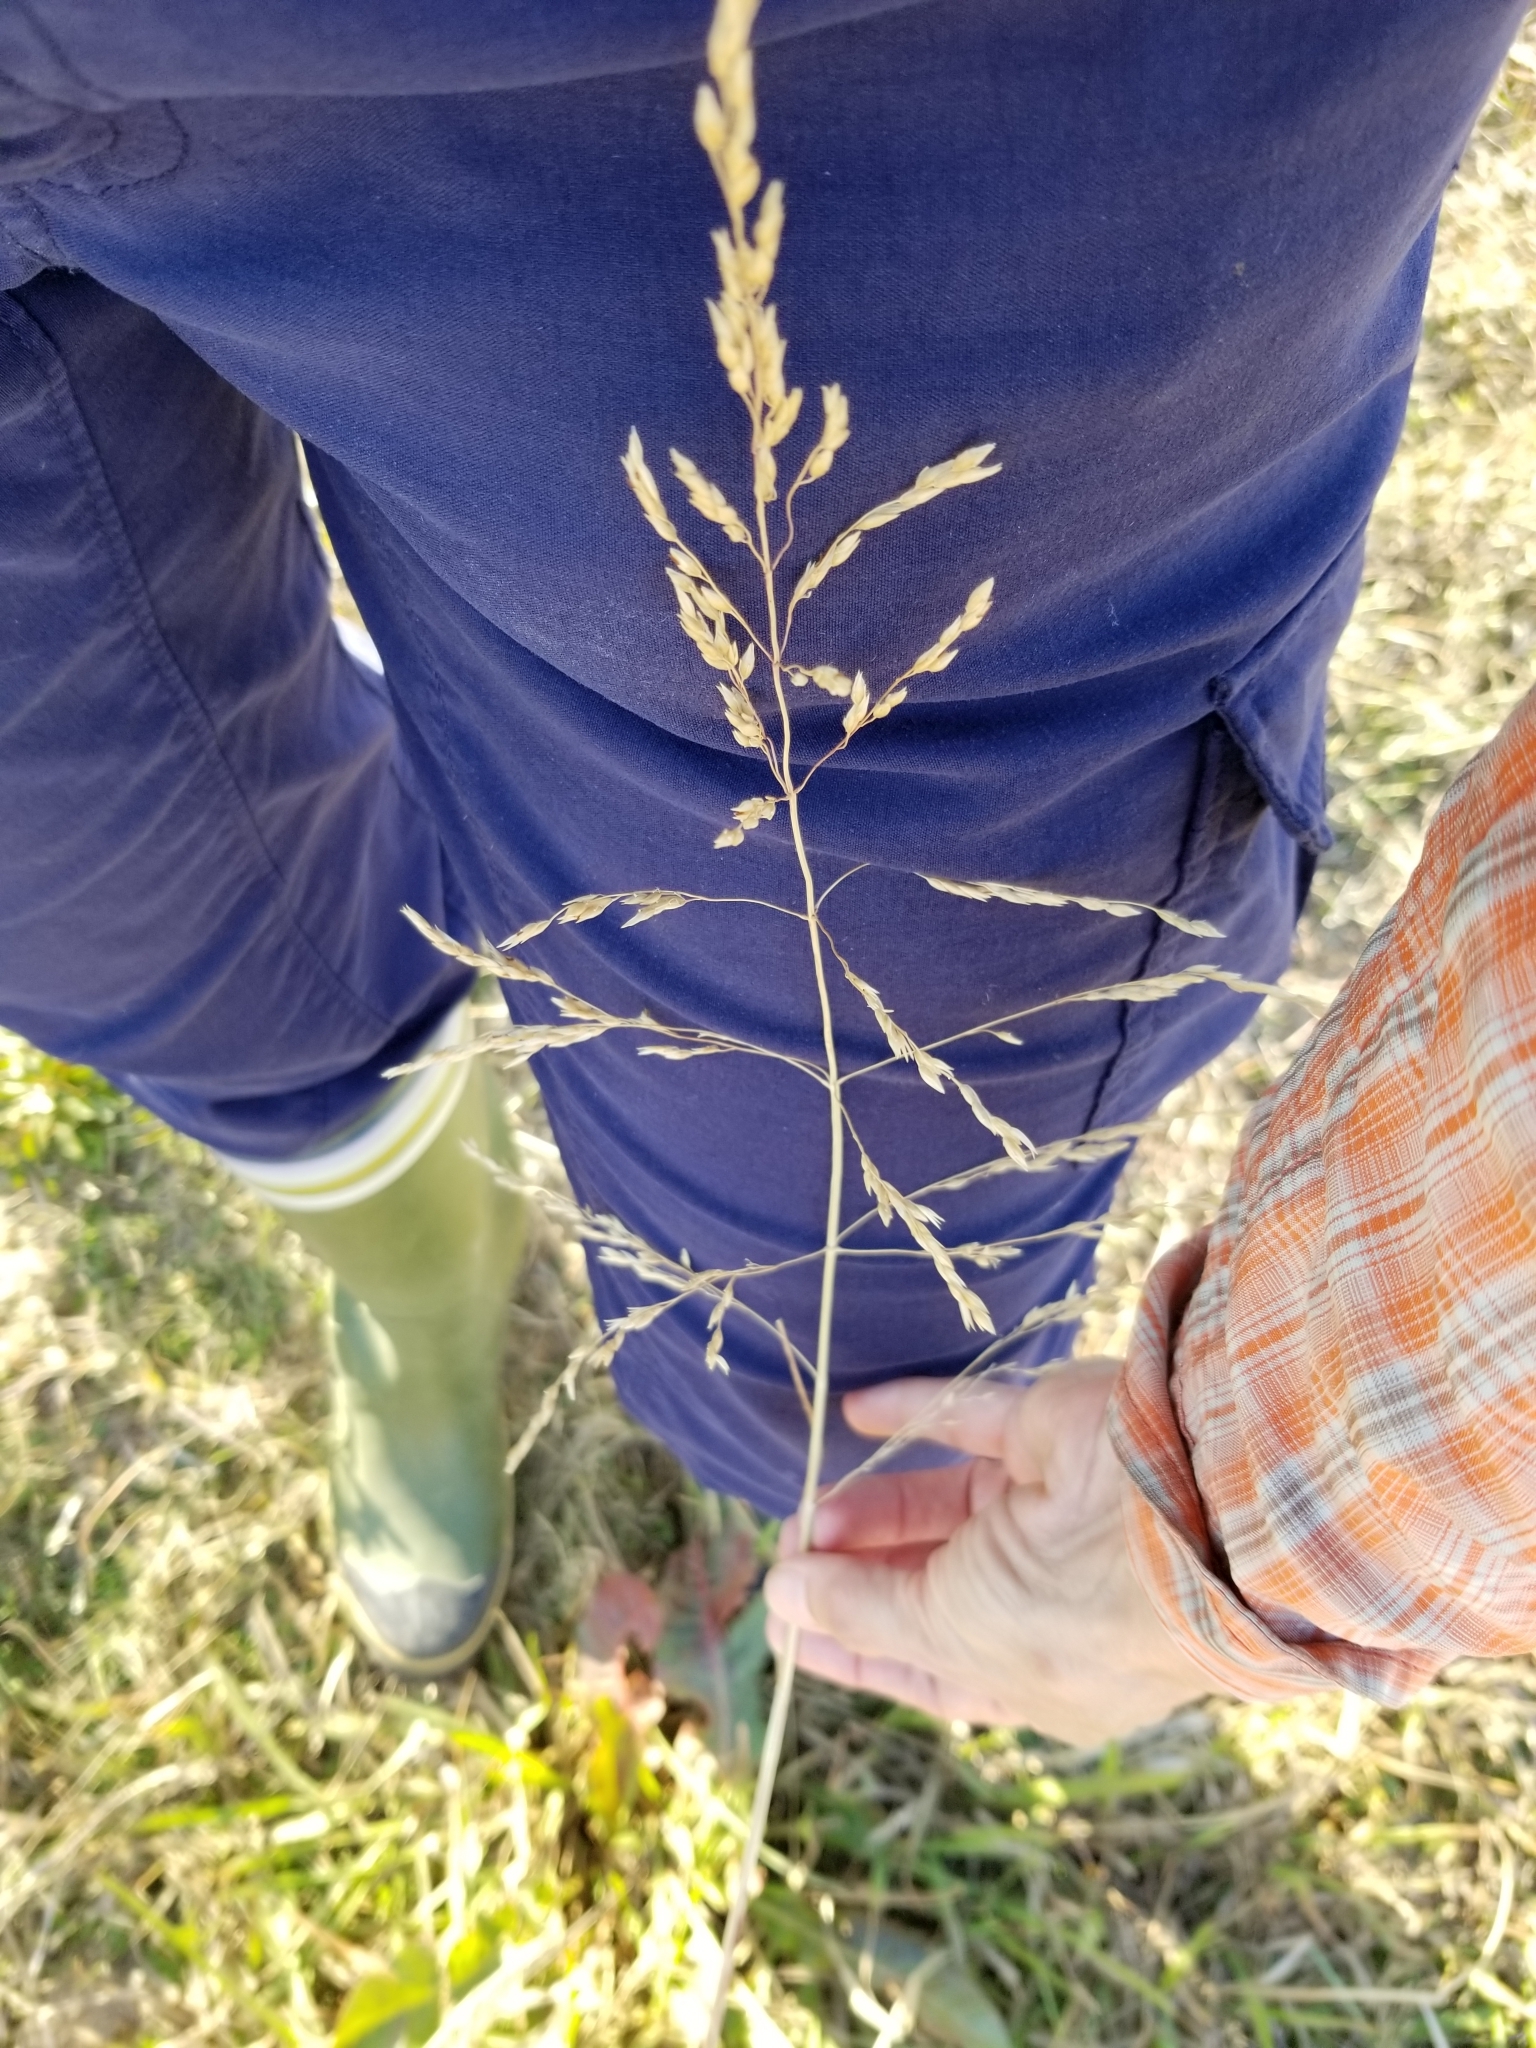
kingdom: Plantae
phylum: Tracheophyta
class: Liliopsida
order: Poales
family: Poaceae
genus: Sorghum
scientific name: Sorghum halepense
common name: Johnson-grass
